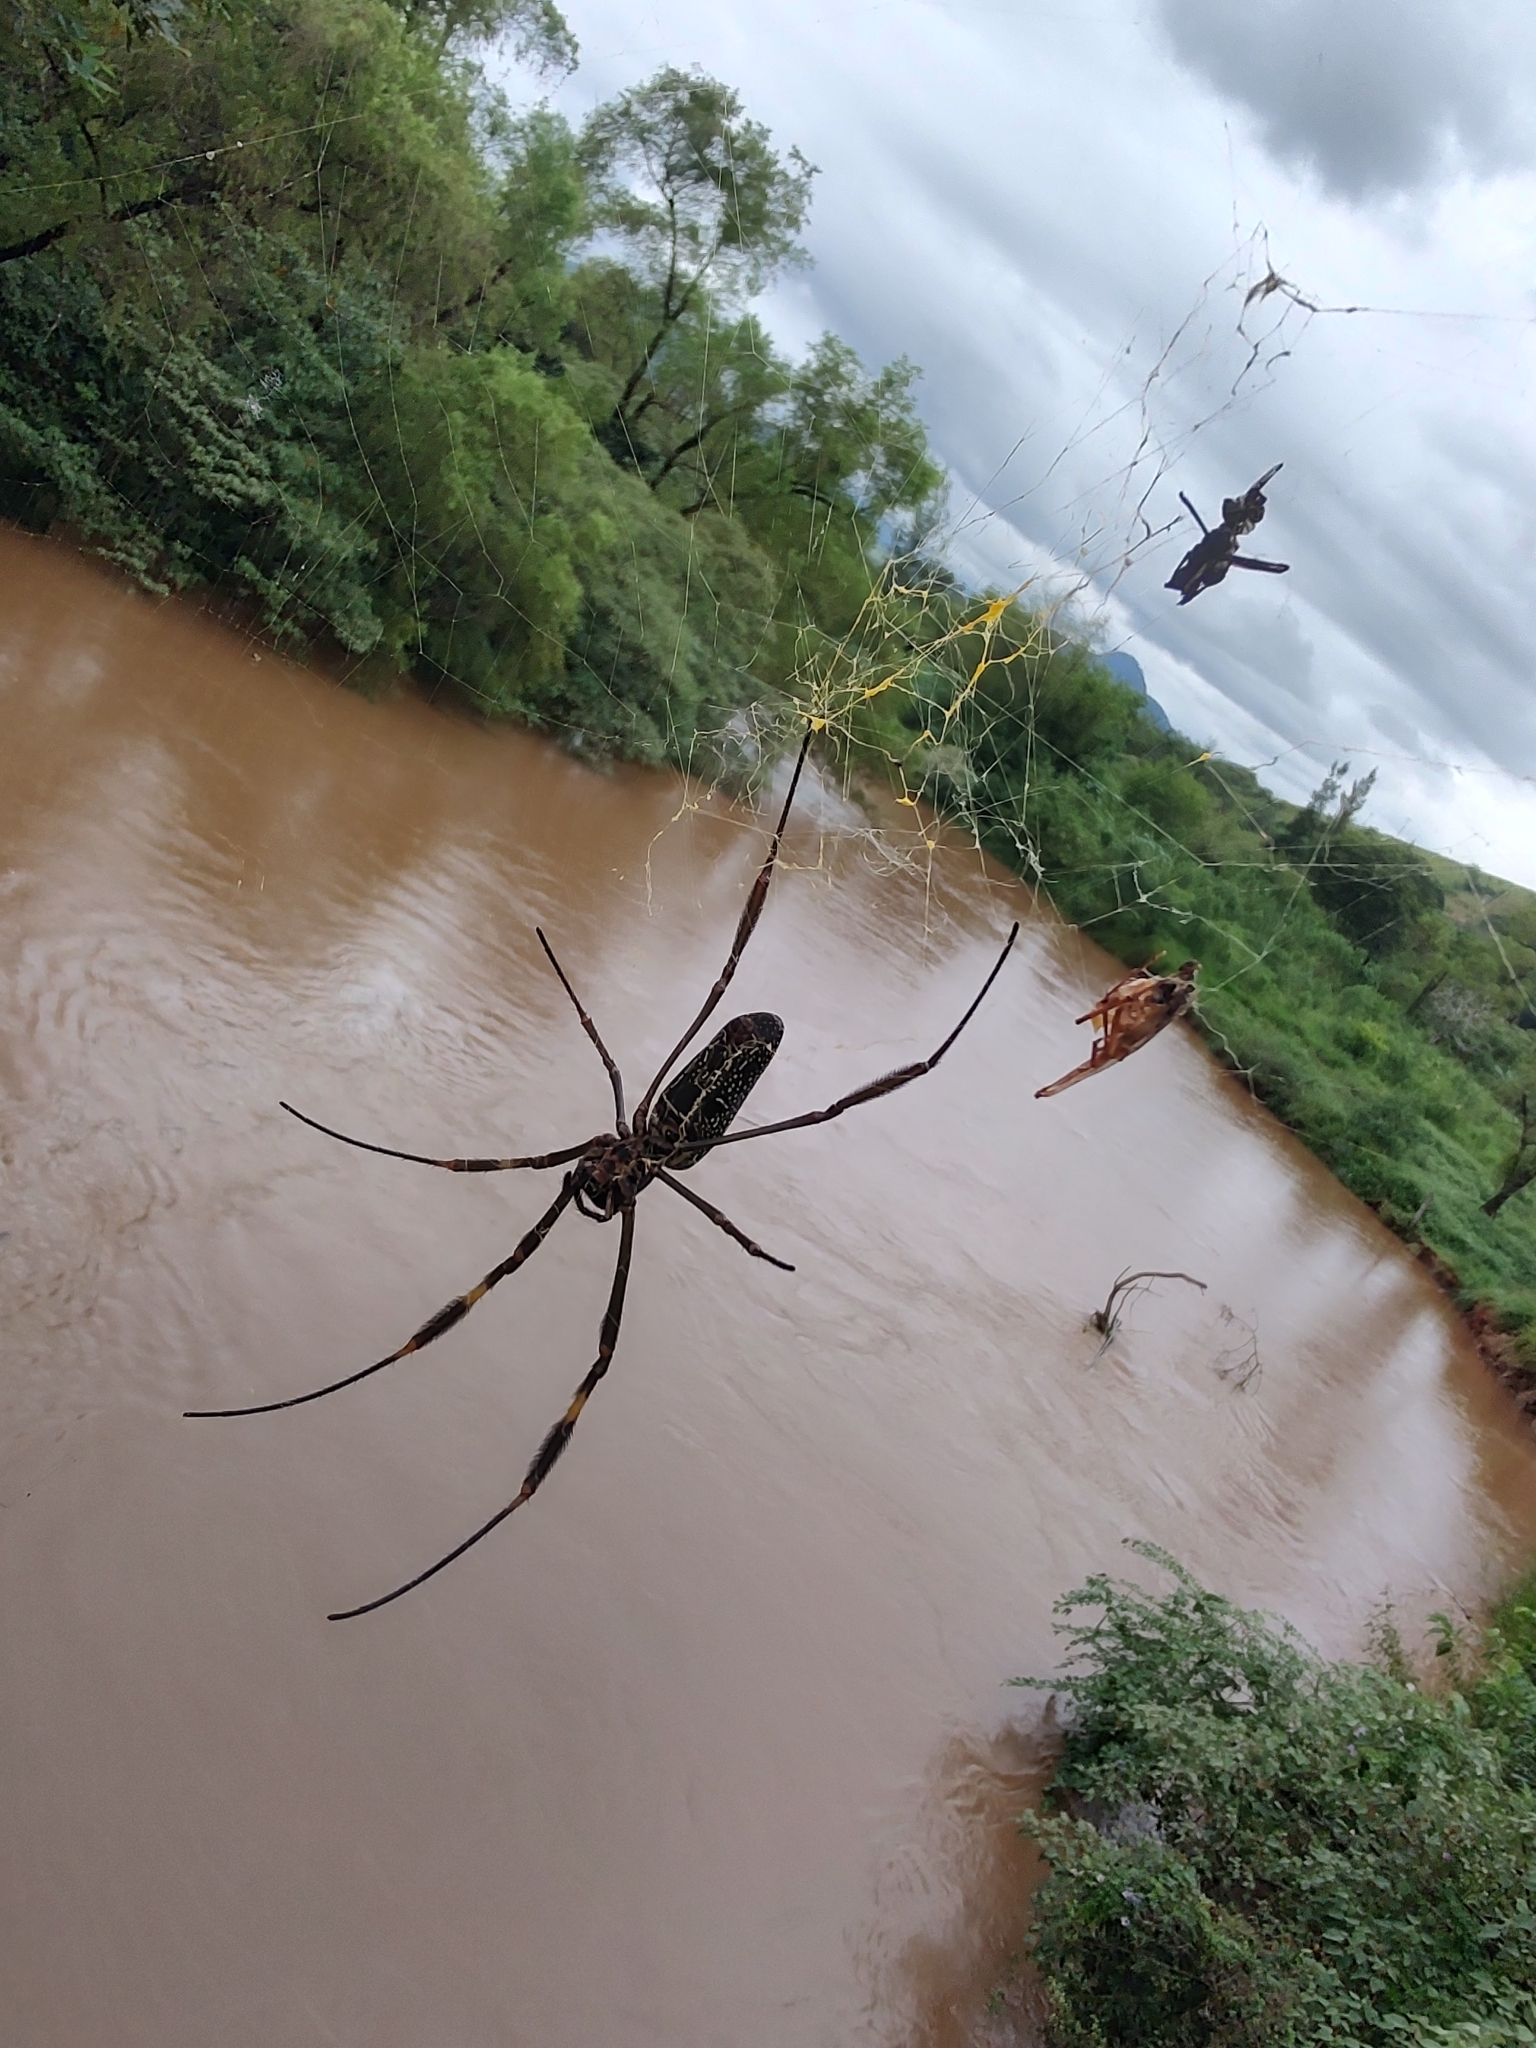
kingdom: Animalia
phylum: Arthropoda
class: Arachnida
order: Araneae
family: Araneidae
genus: Trichonephila
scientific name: Trichonephila clavipes
